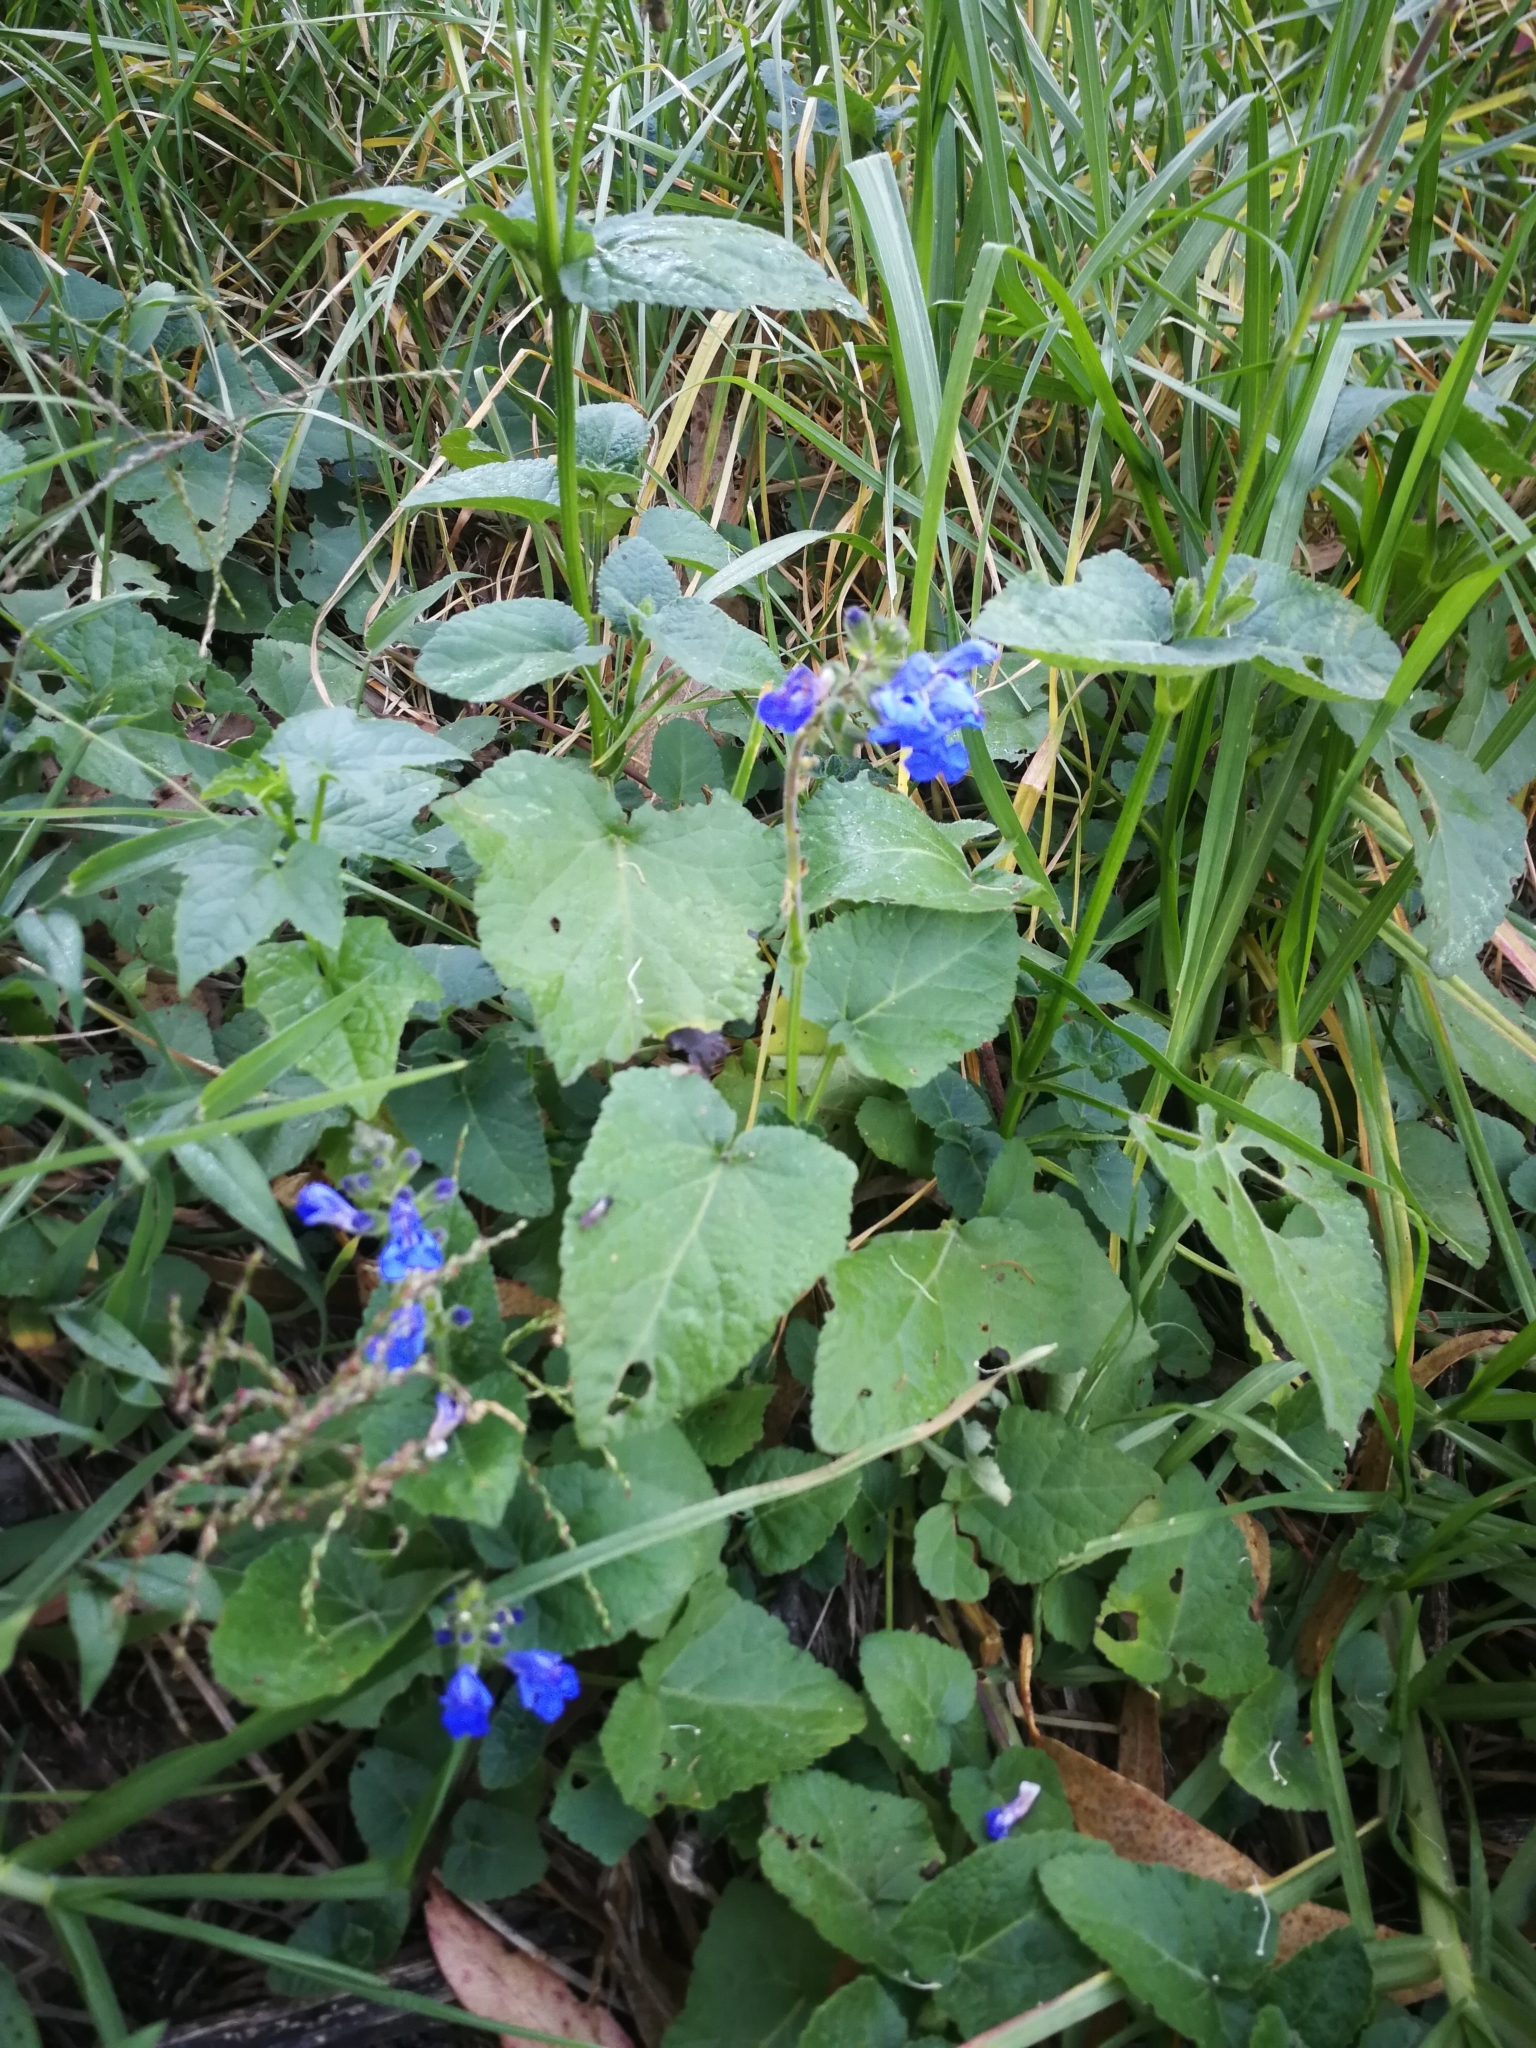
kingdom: Plantae
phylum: Tracheophyta
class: Magnoliopsida
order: Lamiales
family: Lamiaceae
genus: Salvia
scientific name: Salvia scutellarioides
